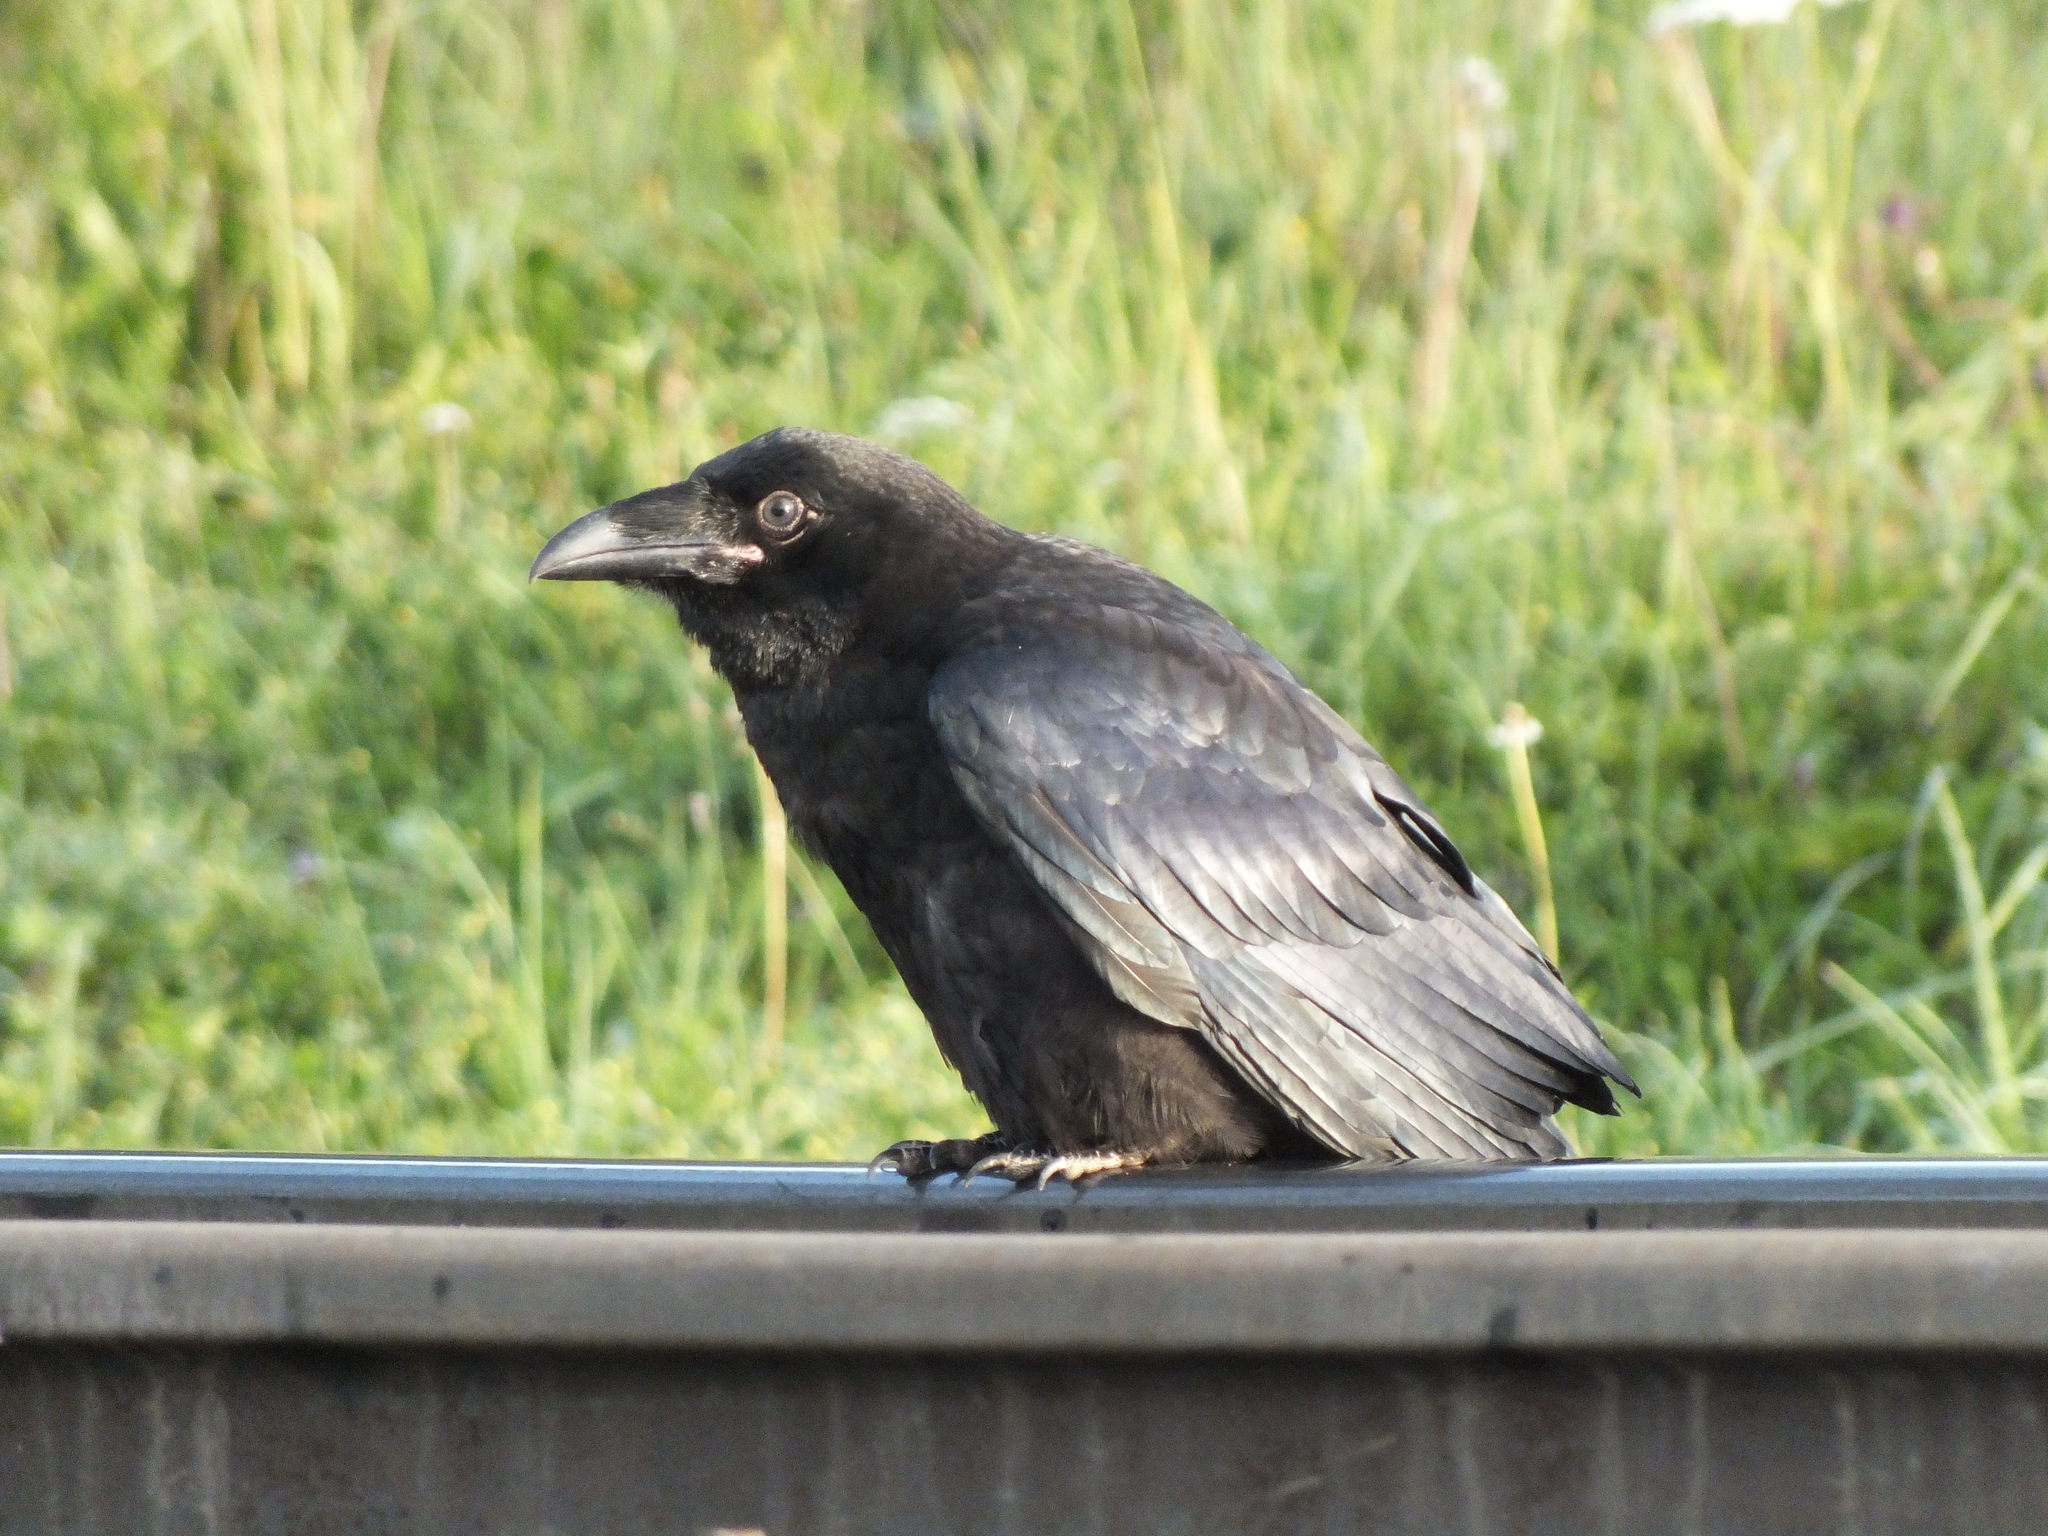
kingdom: Animalia
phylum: Chordata
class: Aves
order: Passeriformes
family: Corvidae
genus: Corvus
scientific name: Corvus corax
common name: Common raven
